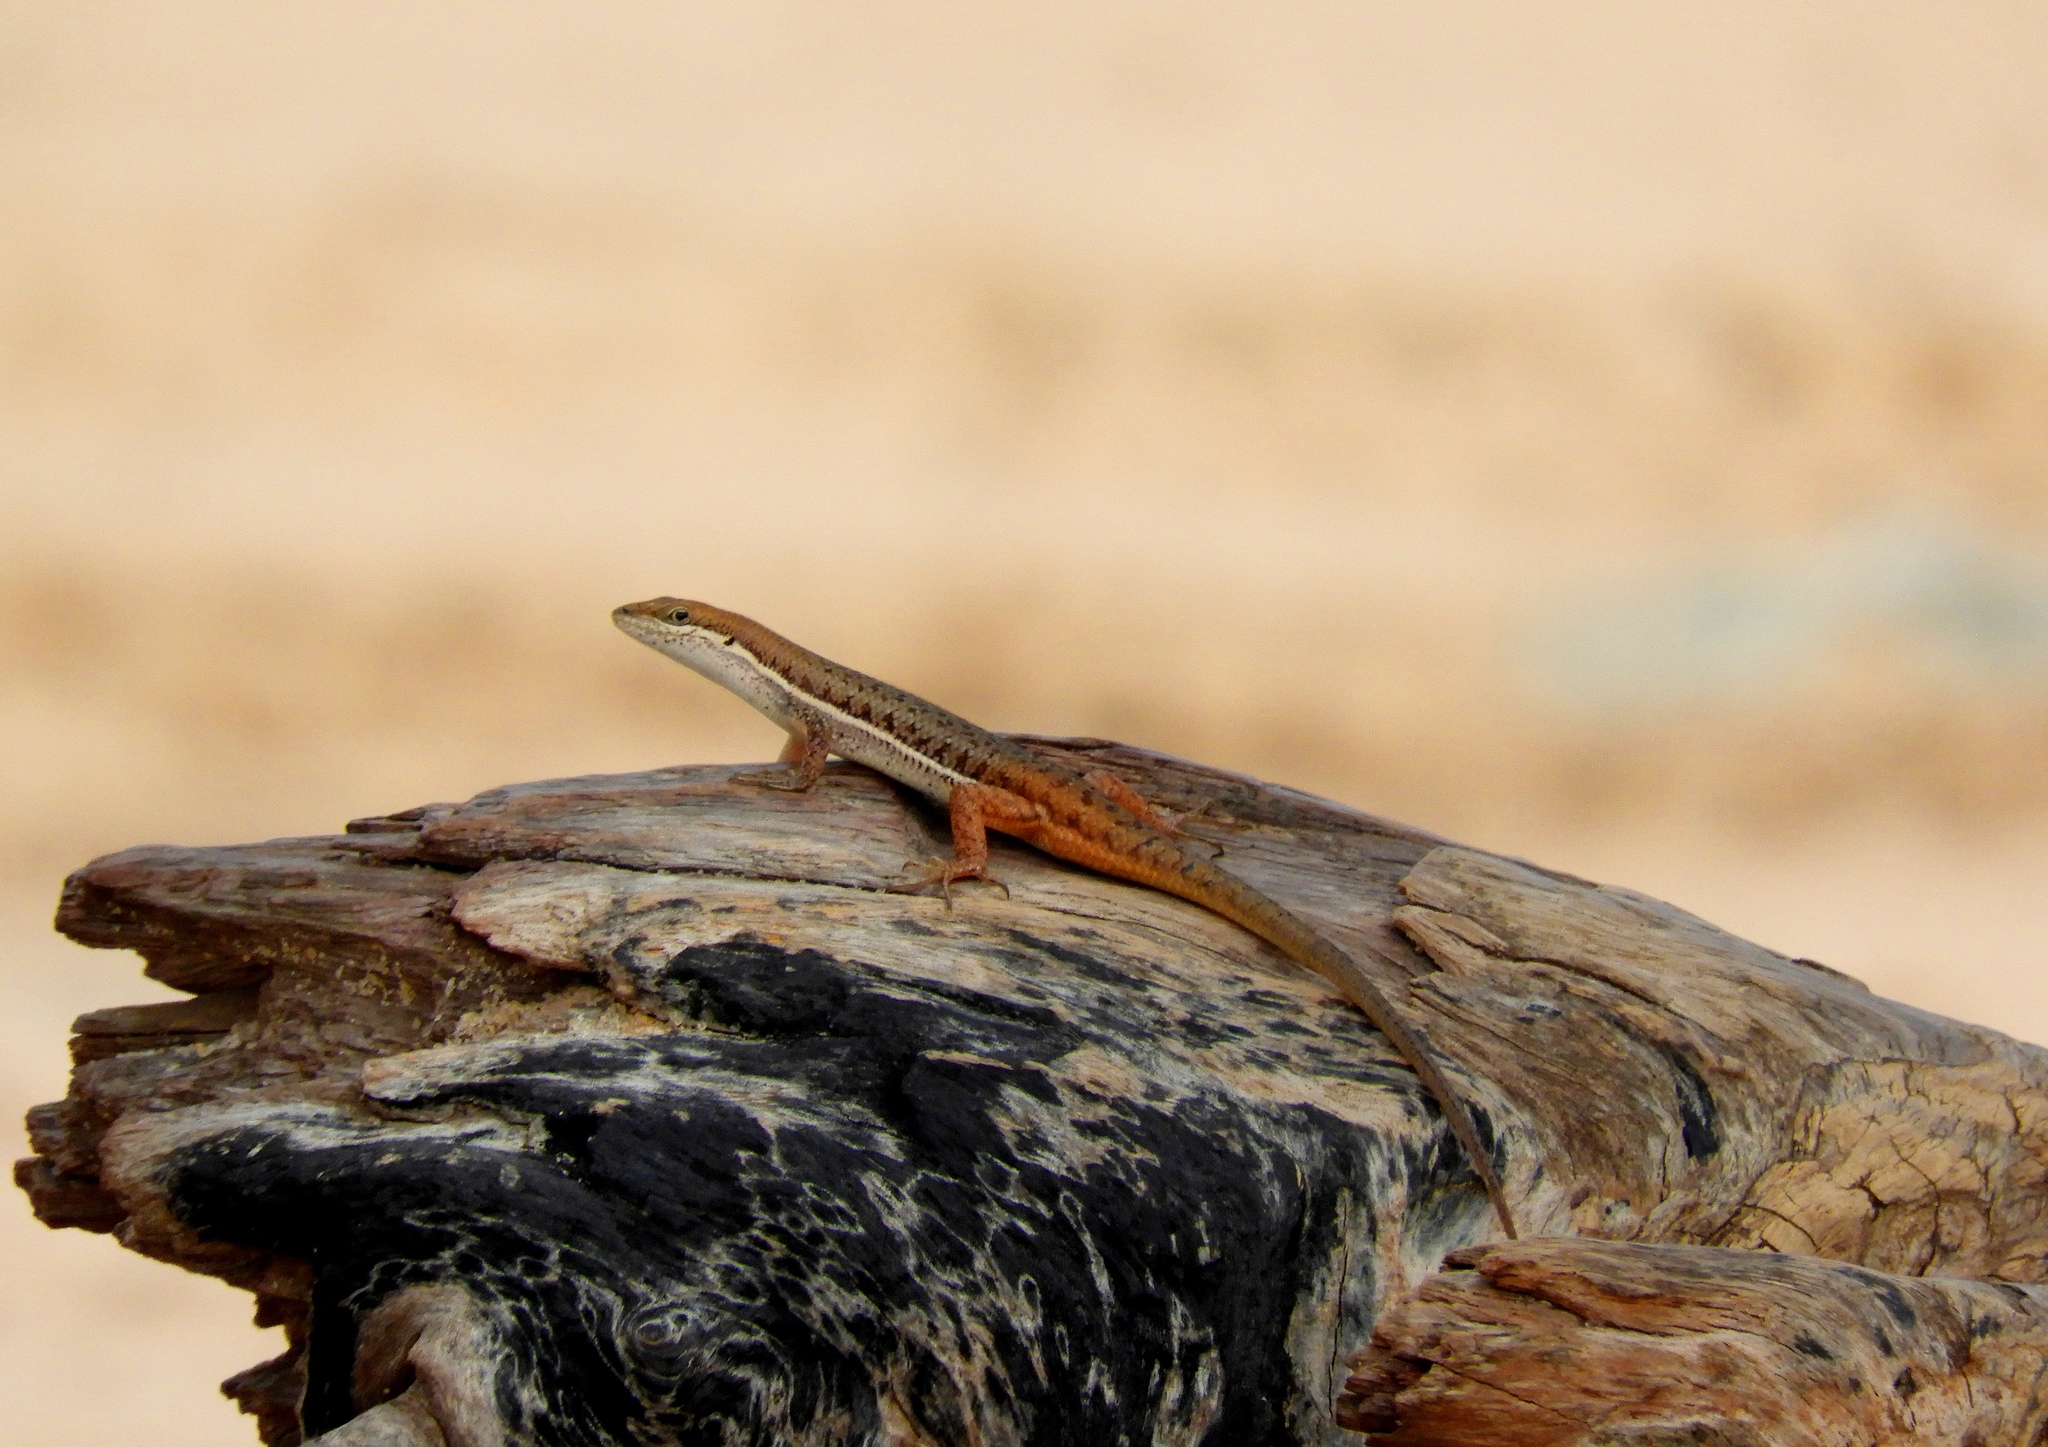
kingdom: Animalia
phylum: Chordata
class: Squamata
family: Scincidae
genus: Trachylepis
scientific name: Trachylepis varia
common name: Eastern variable skink
